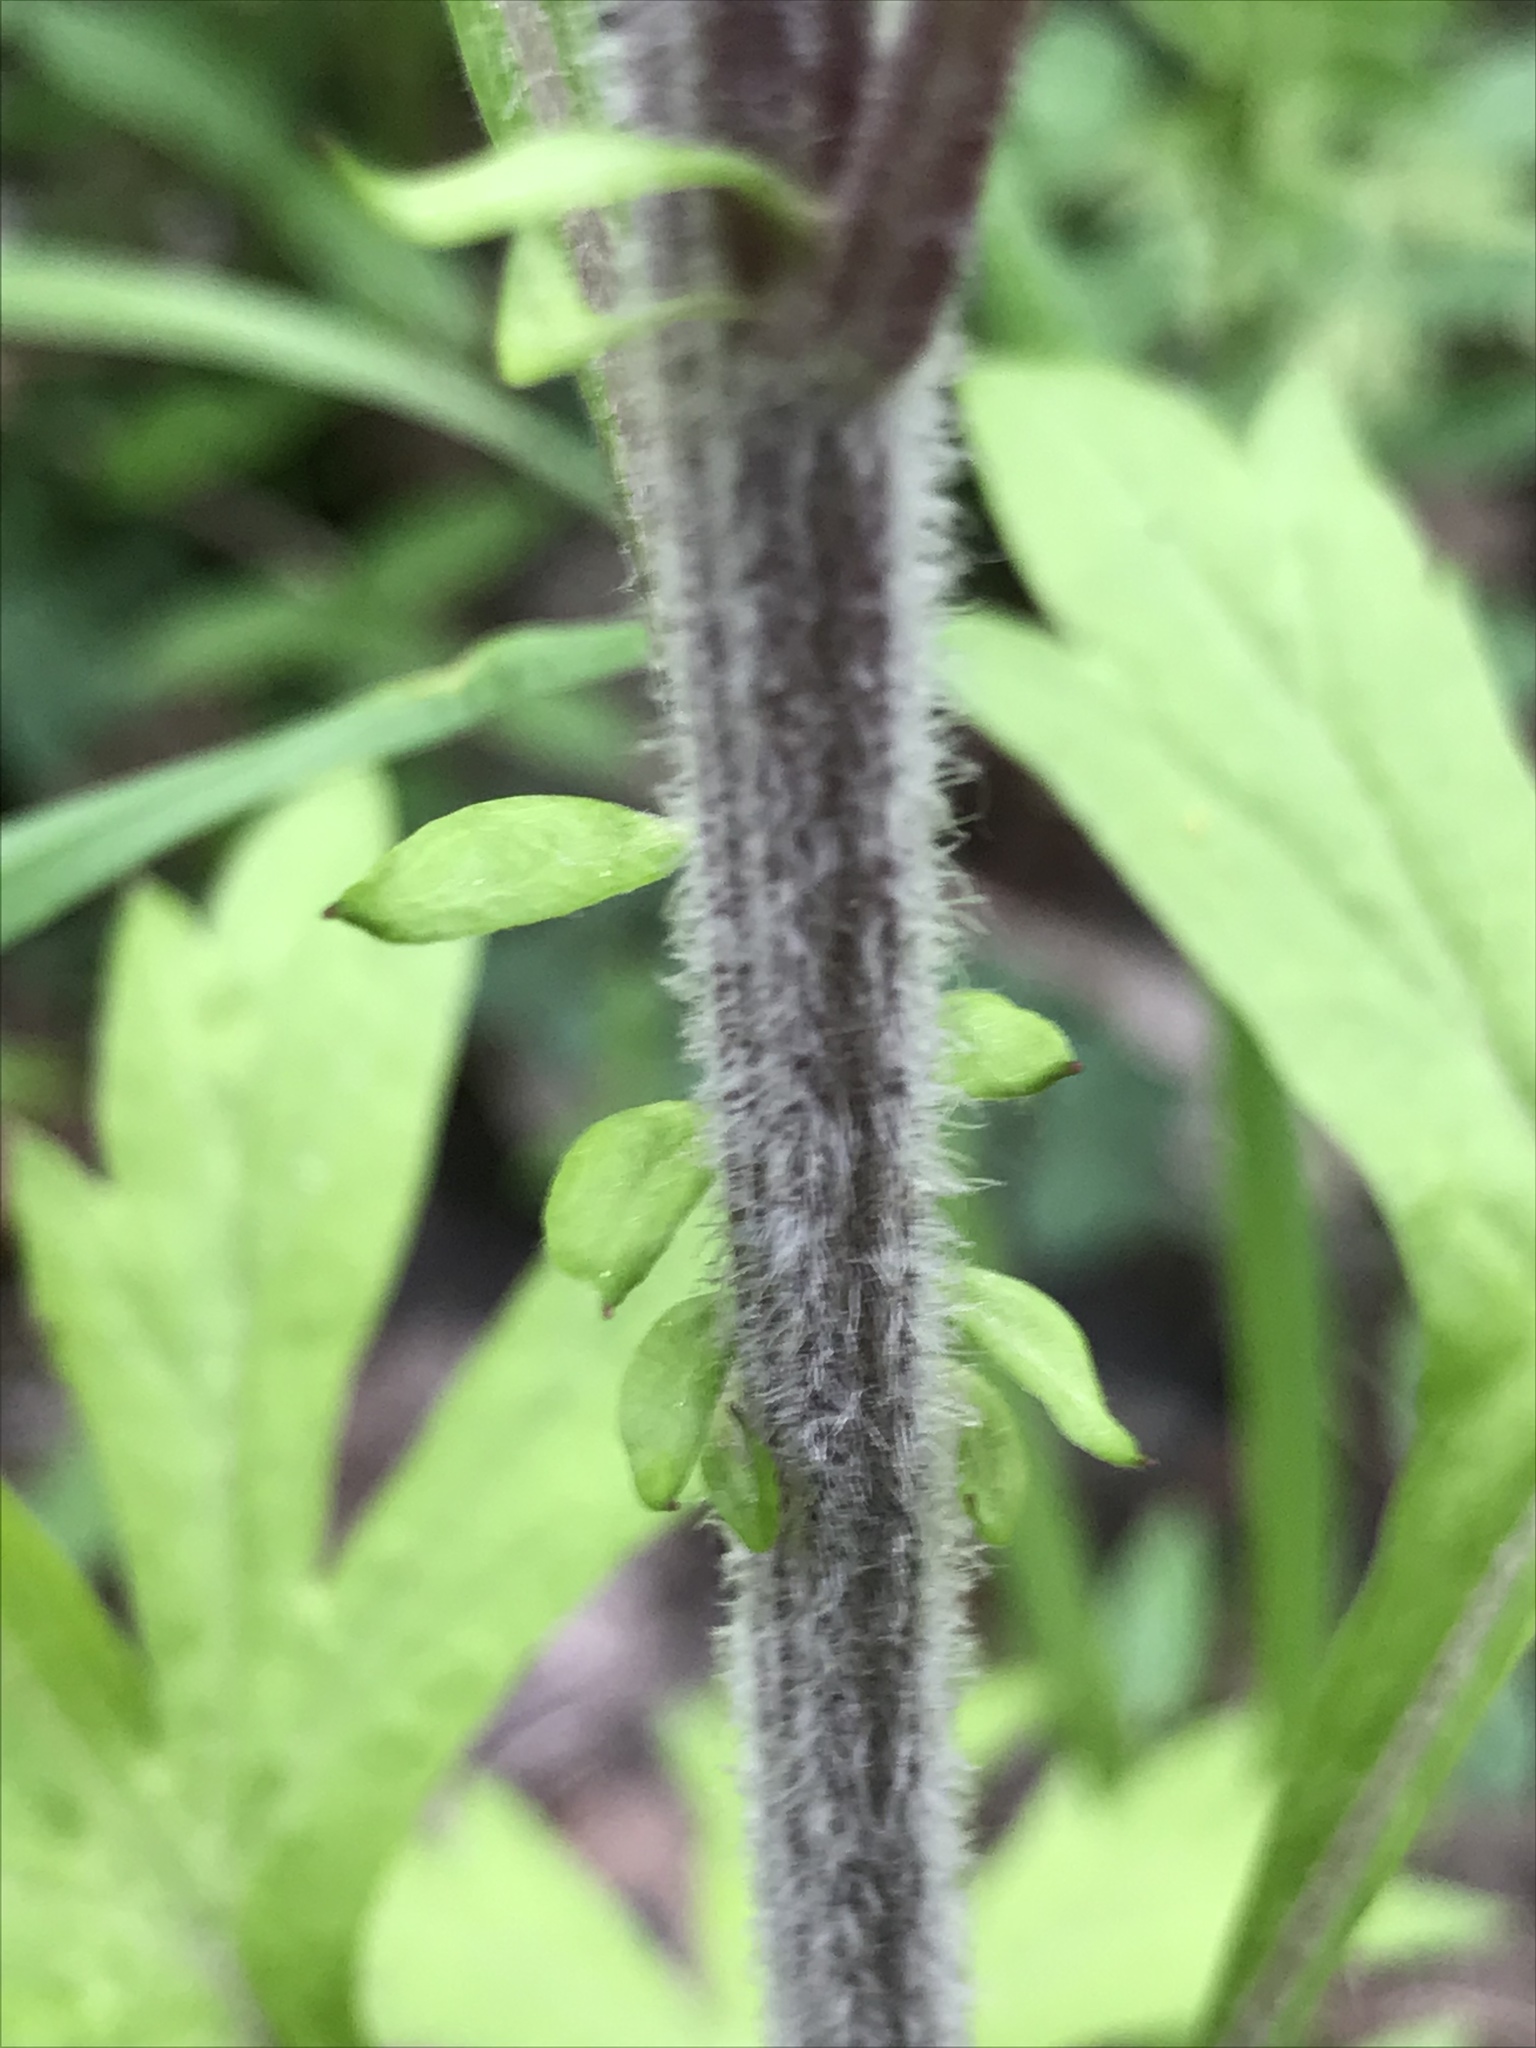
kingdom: Plantae
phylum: Tracheophyta
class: Magnoliopsida
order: Asterales
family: Asteraceae
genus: Artemisia
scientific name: Artemisia vulgaris
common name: Mugwort
